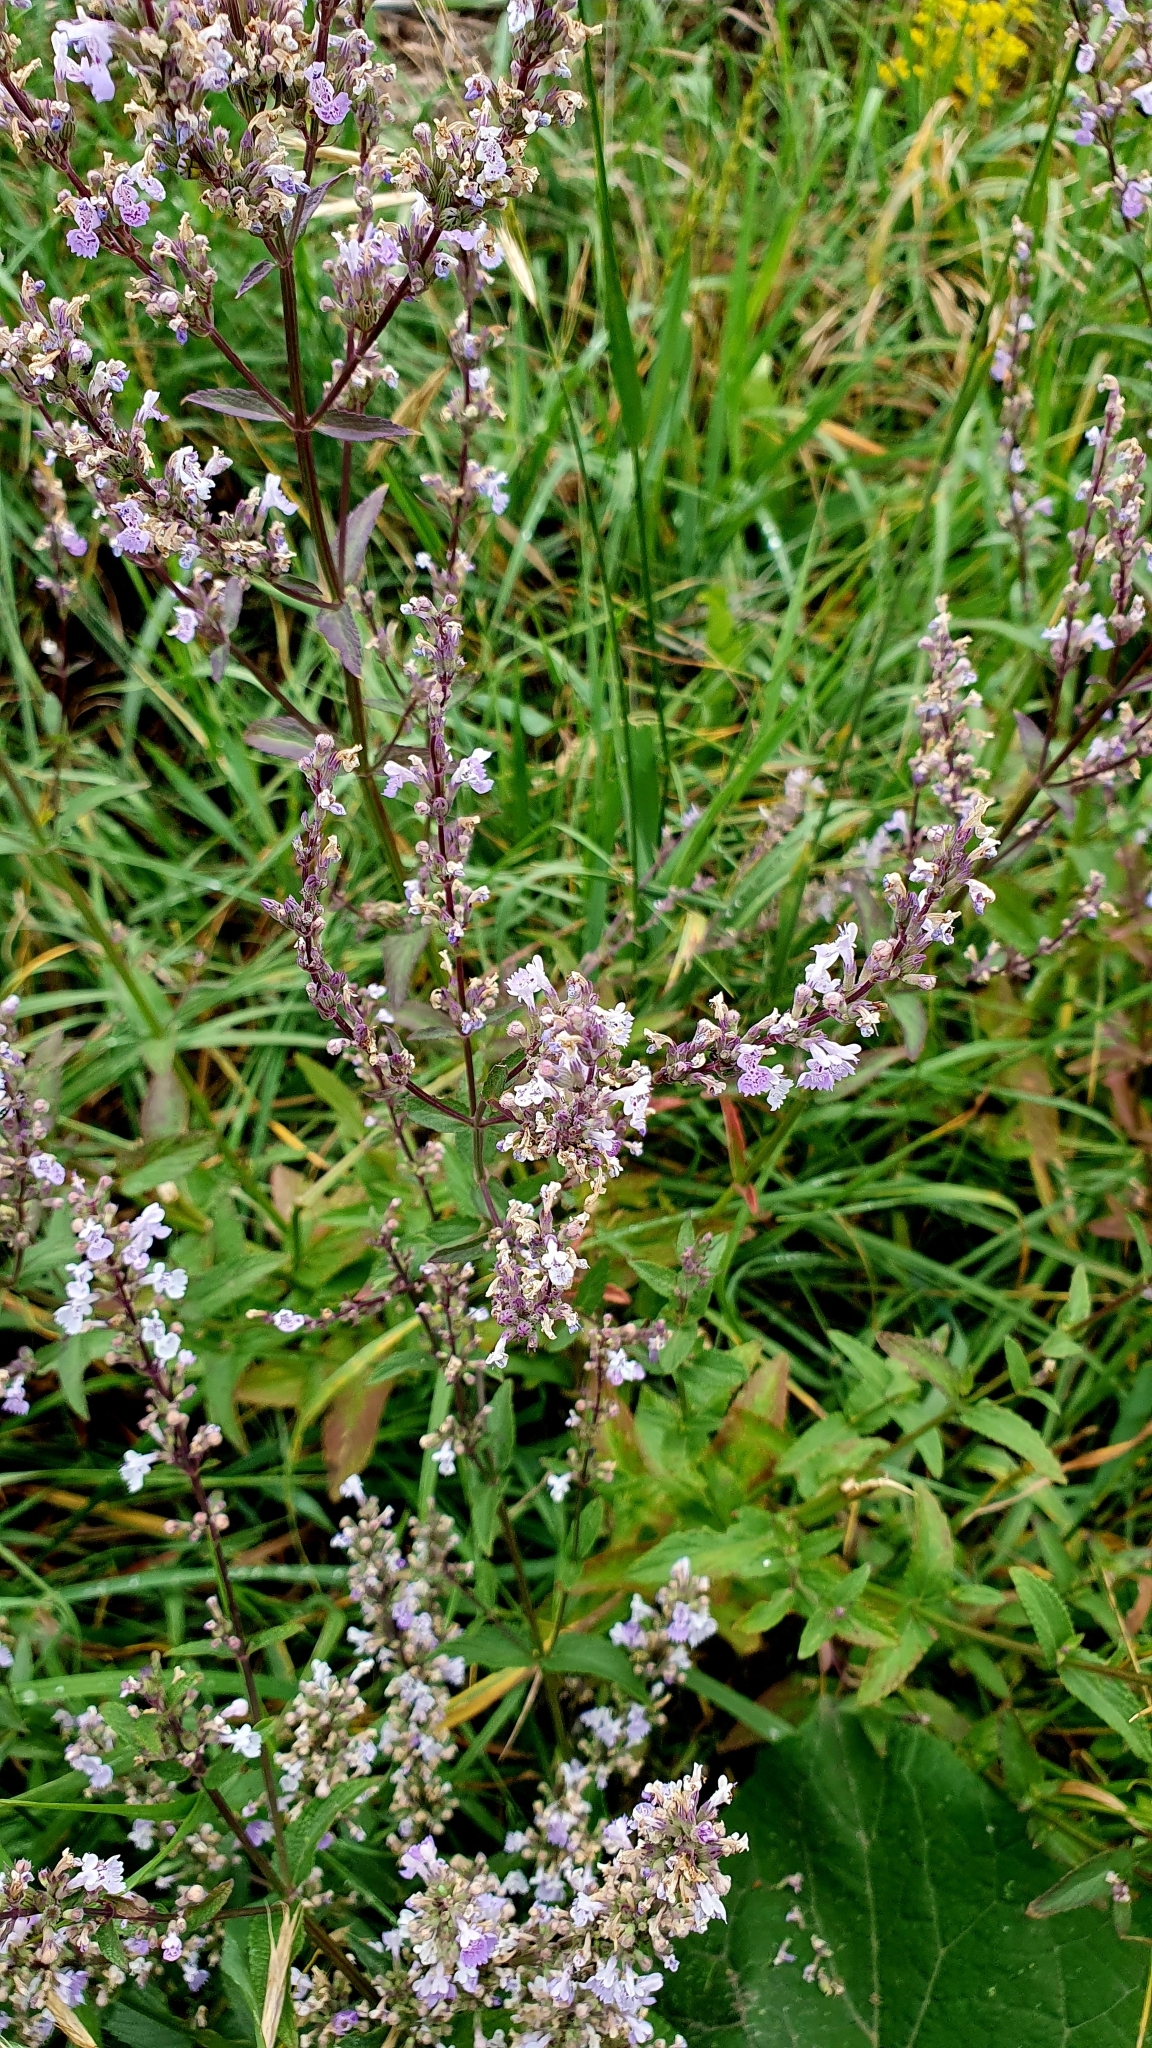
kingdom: Plantae
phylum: Tracheophyta
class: Magnoliopsida
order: Lamiales
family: Lamiaceae
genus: Nepeta
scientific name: Nepeta nuda
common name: Hairless catmint
